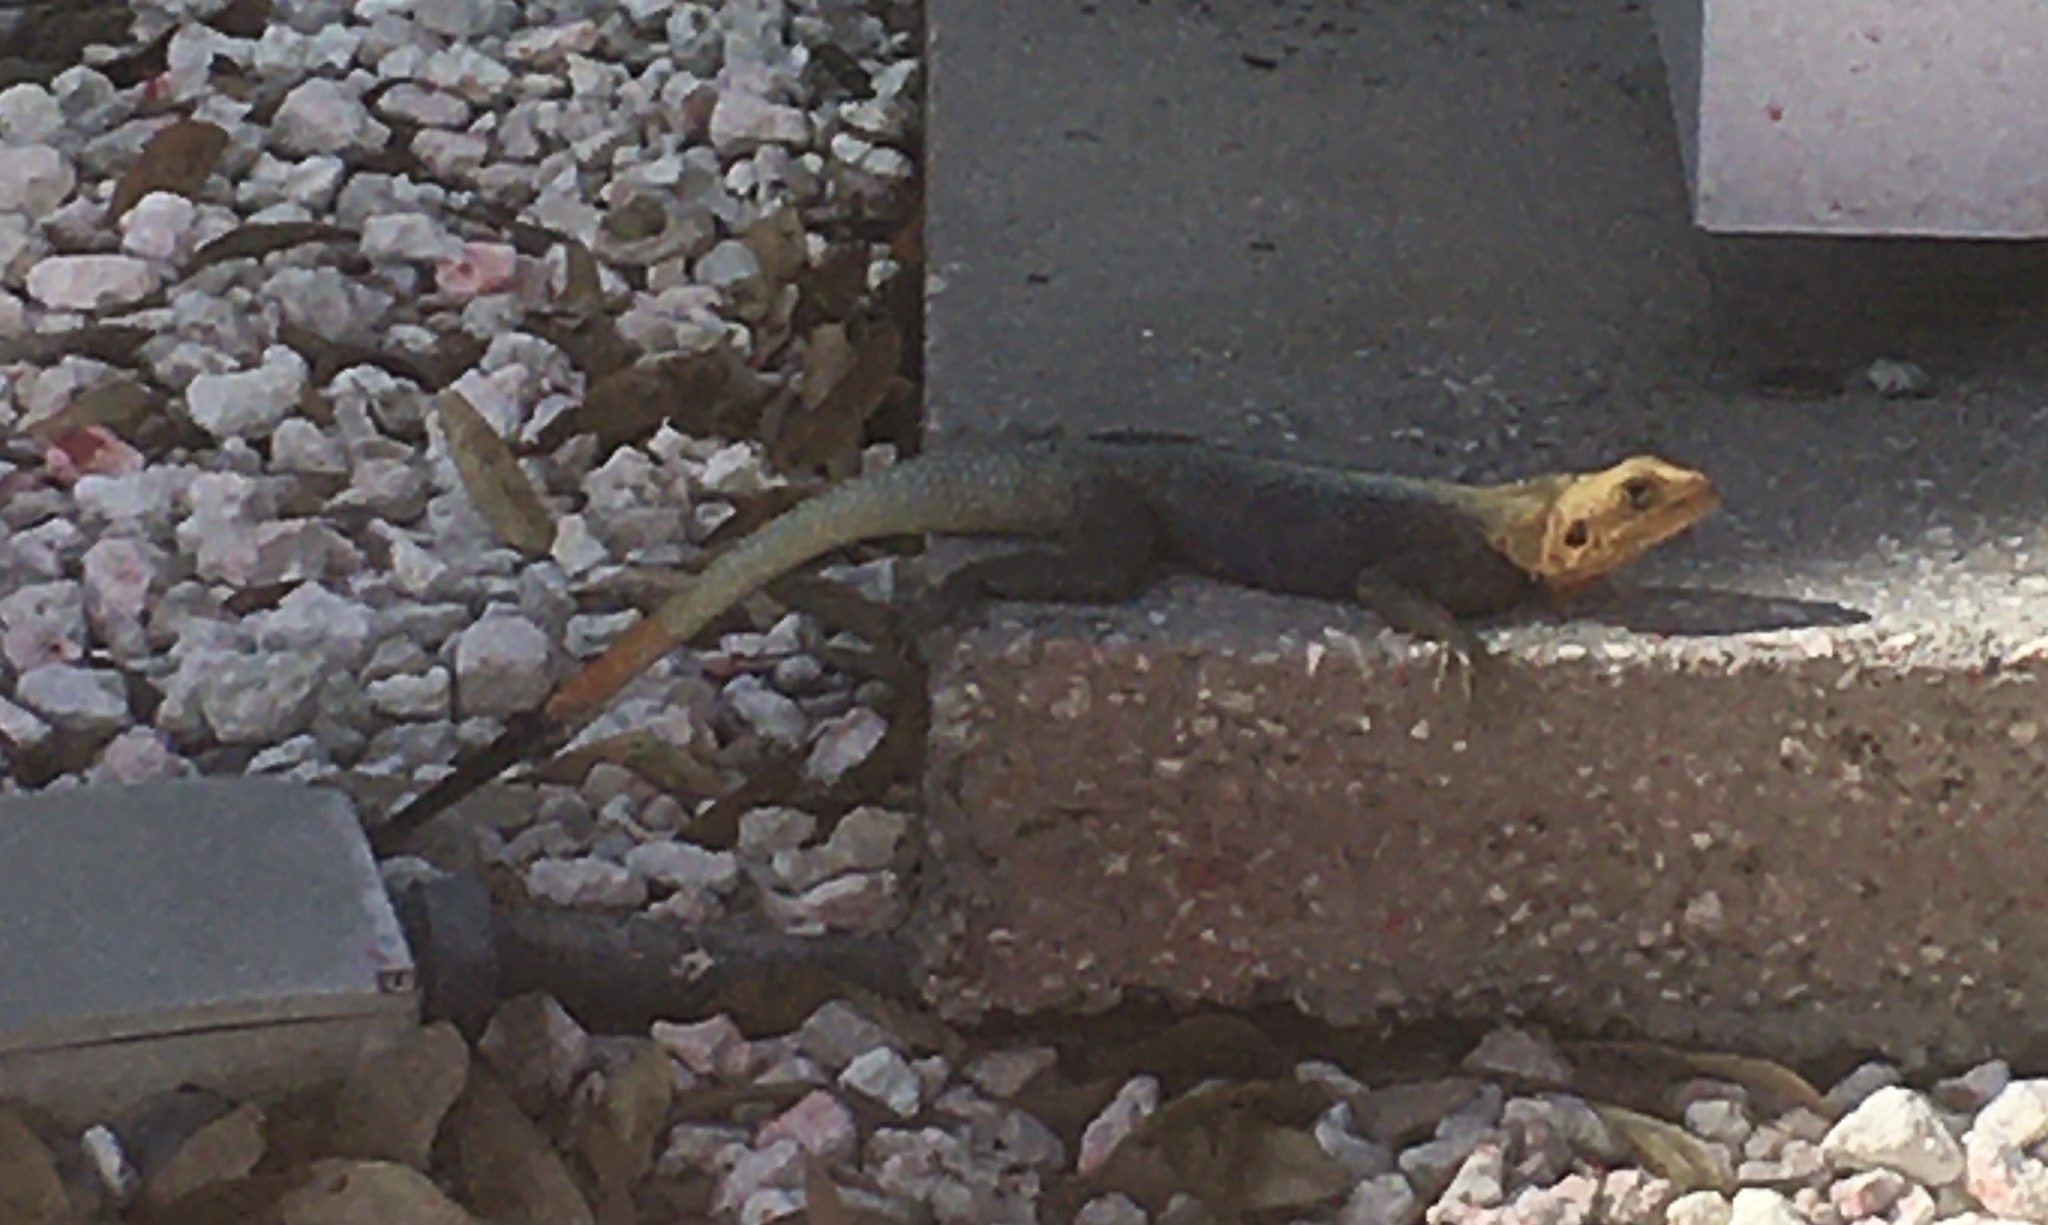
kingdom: Animalia
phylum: Chordata
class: Squamata
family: Agamidae
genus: Agama
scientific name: Agama picticauda
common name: Red-headed agama
